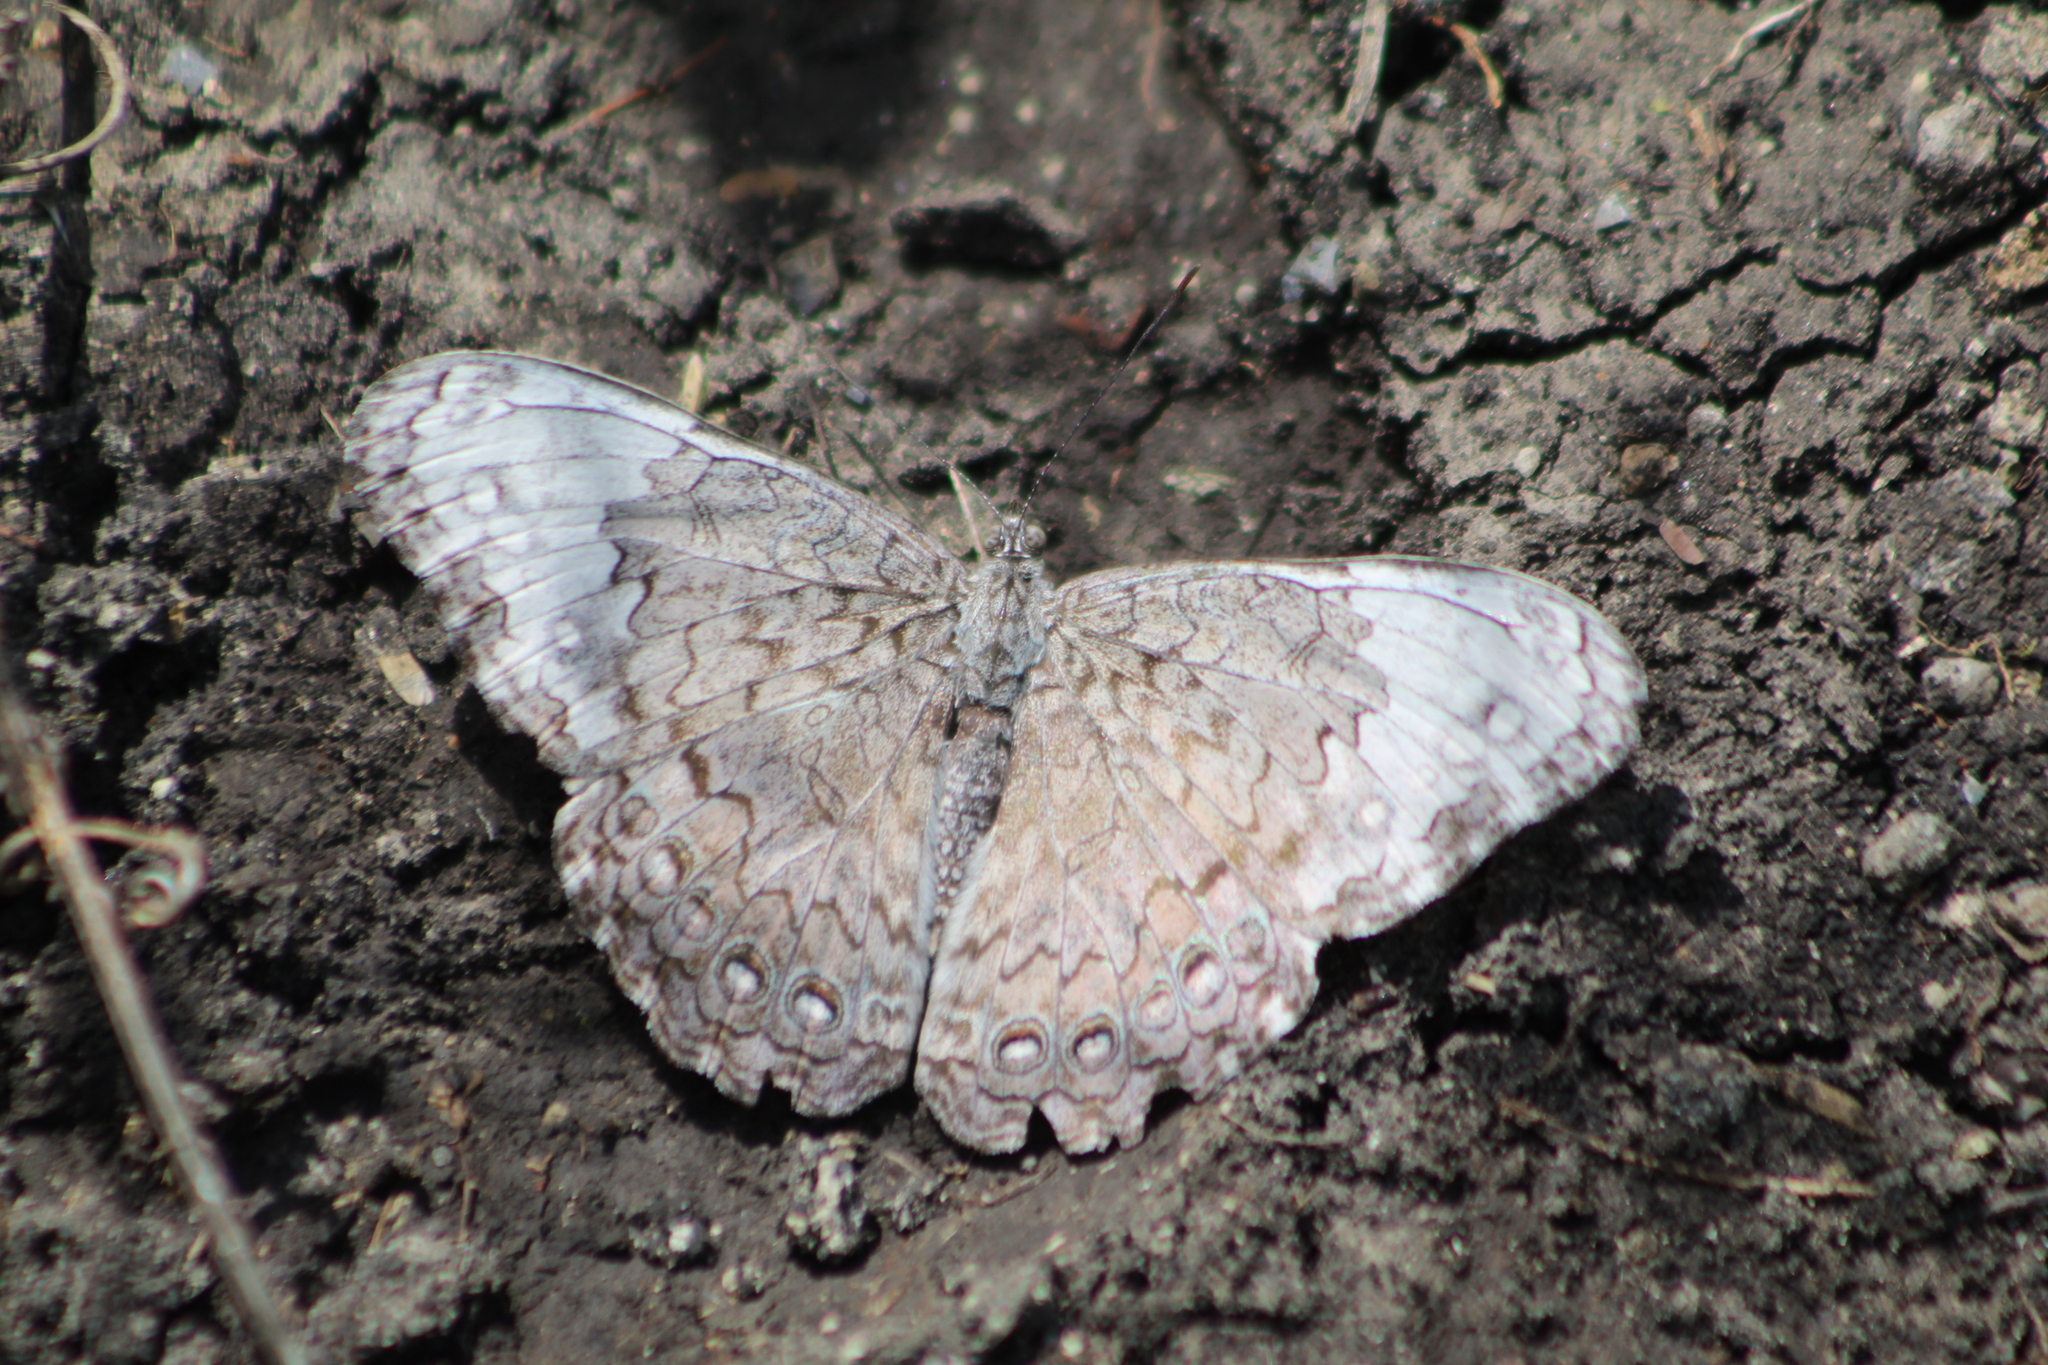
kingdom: Animalia
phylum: Arthropoda
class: Insecta
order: Lepidoptera
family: Nymphalidae
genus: Hamadryas
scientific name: Hamadryas glauconome
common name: Glaucous cracker
